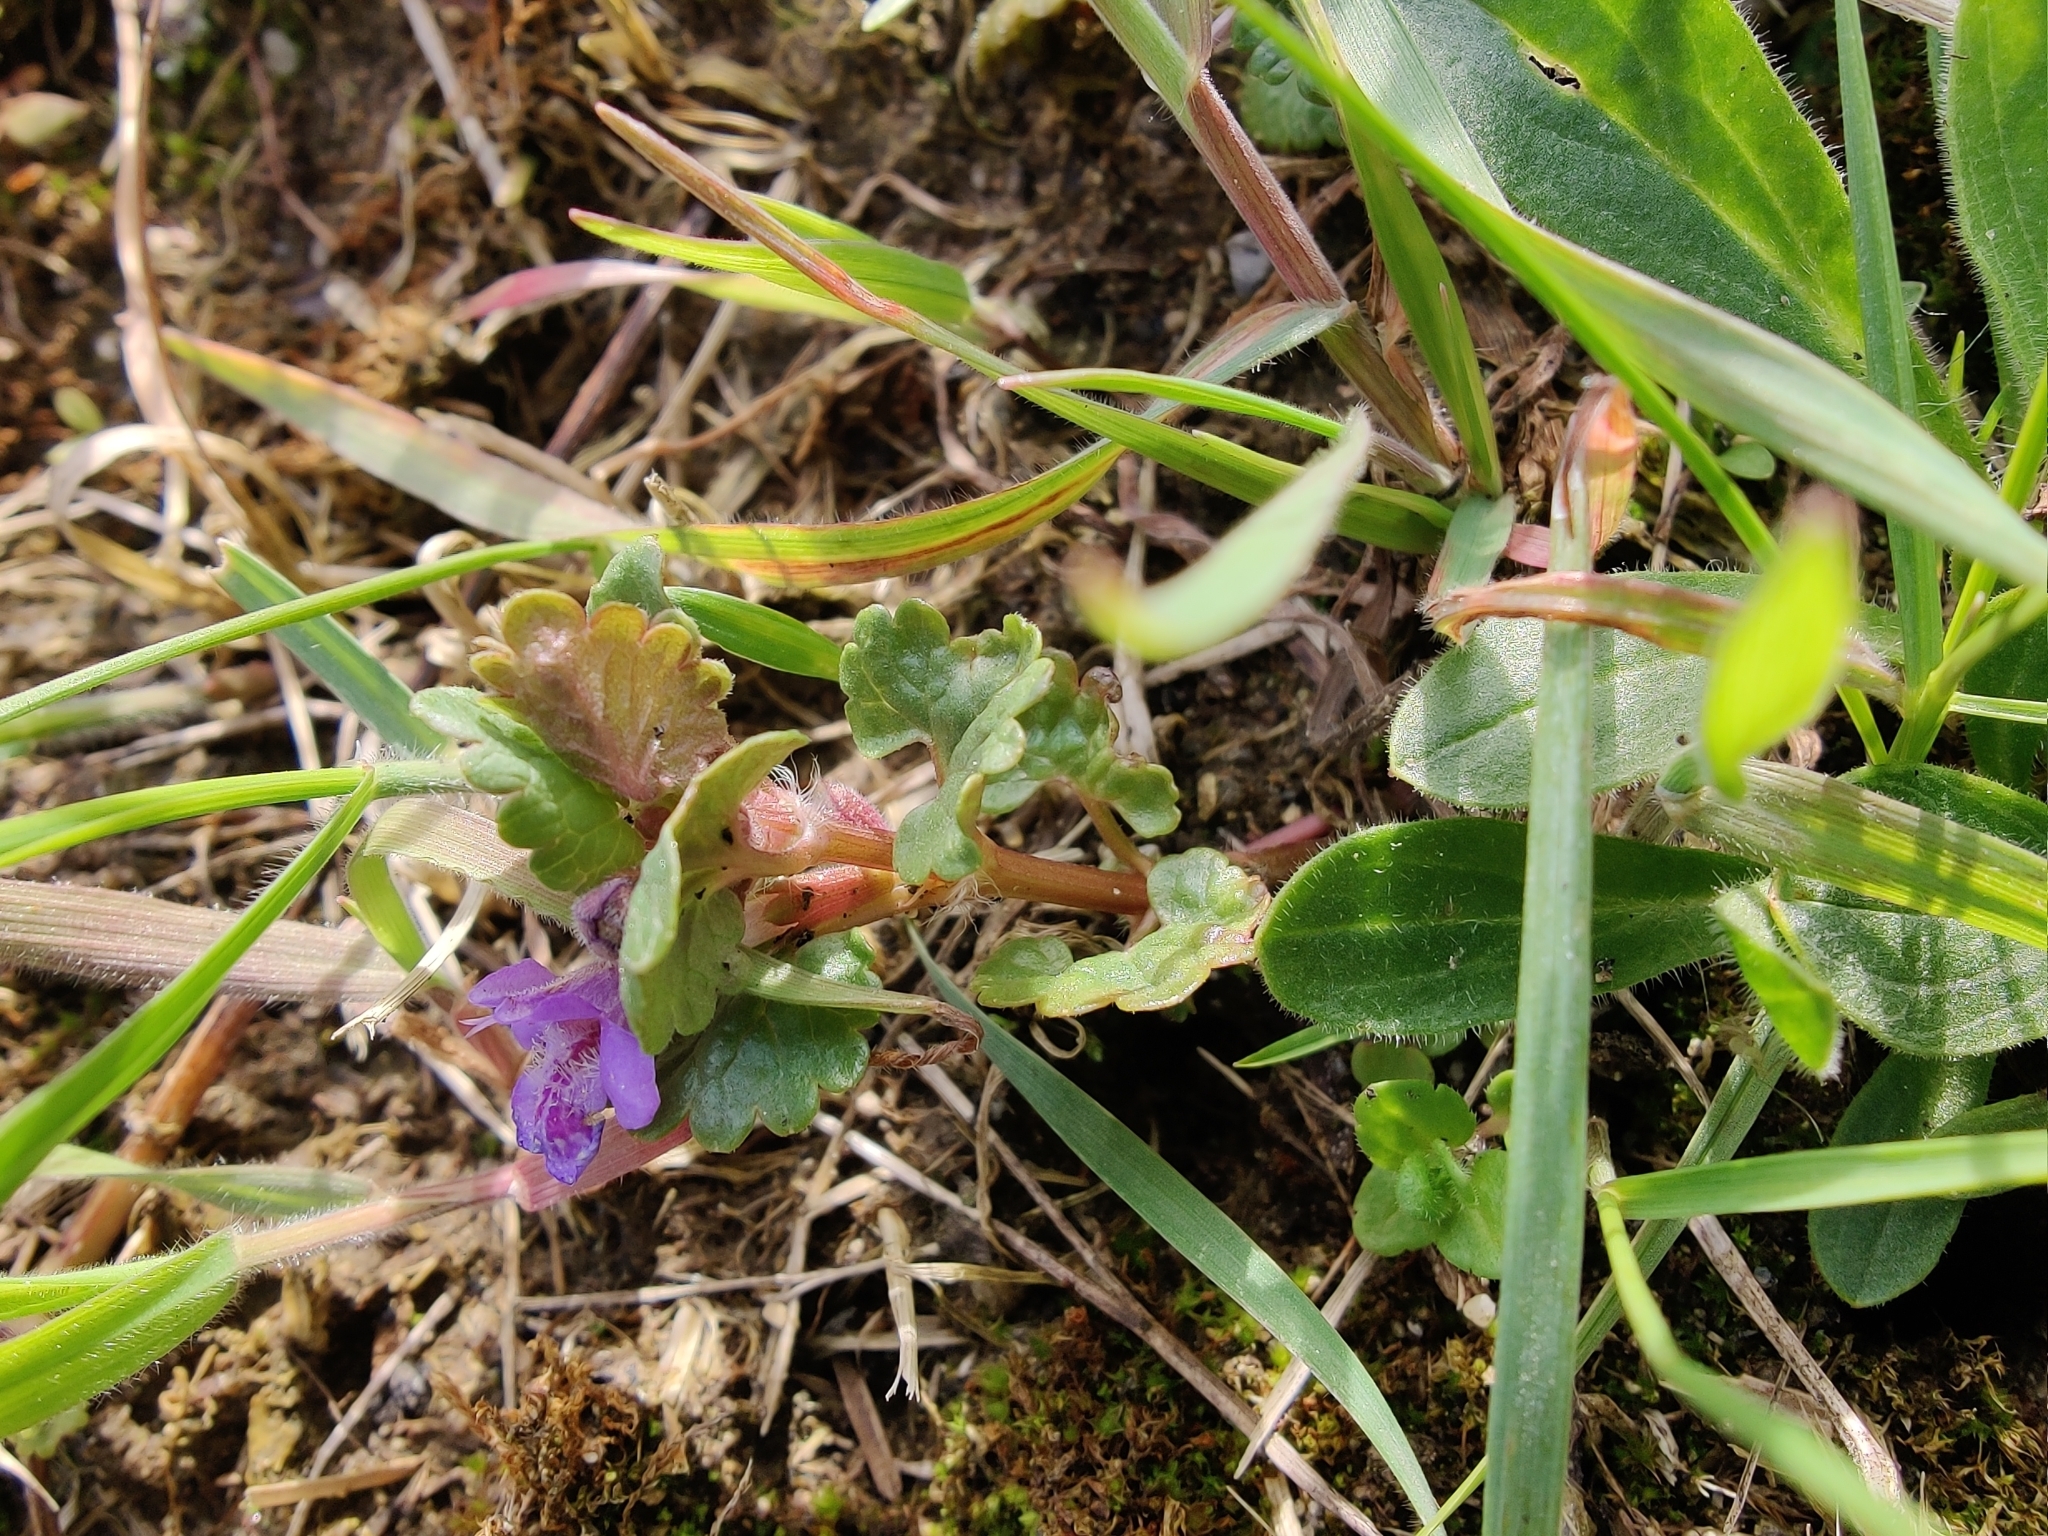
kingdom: Plantae
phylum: Tracheophyta
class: Magnoliopsida
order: Lamiales
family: Lamiaceae
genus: Glechoma
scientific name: Glechoma hederacea
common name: Ground ivy
